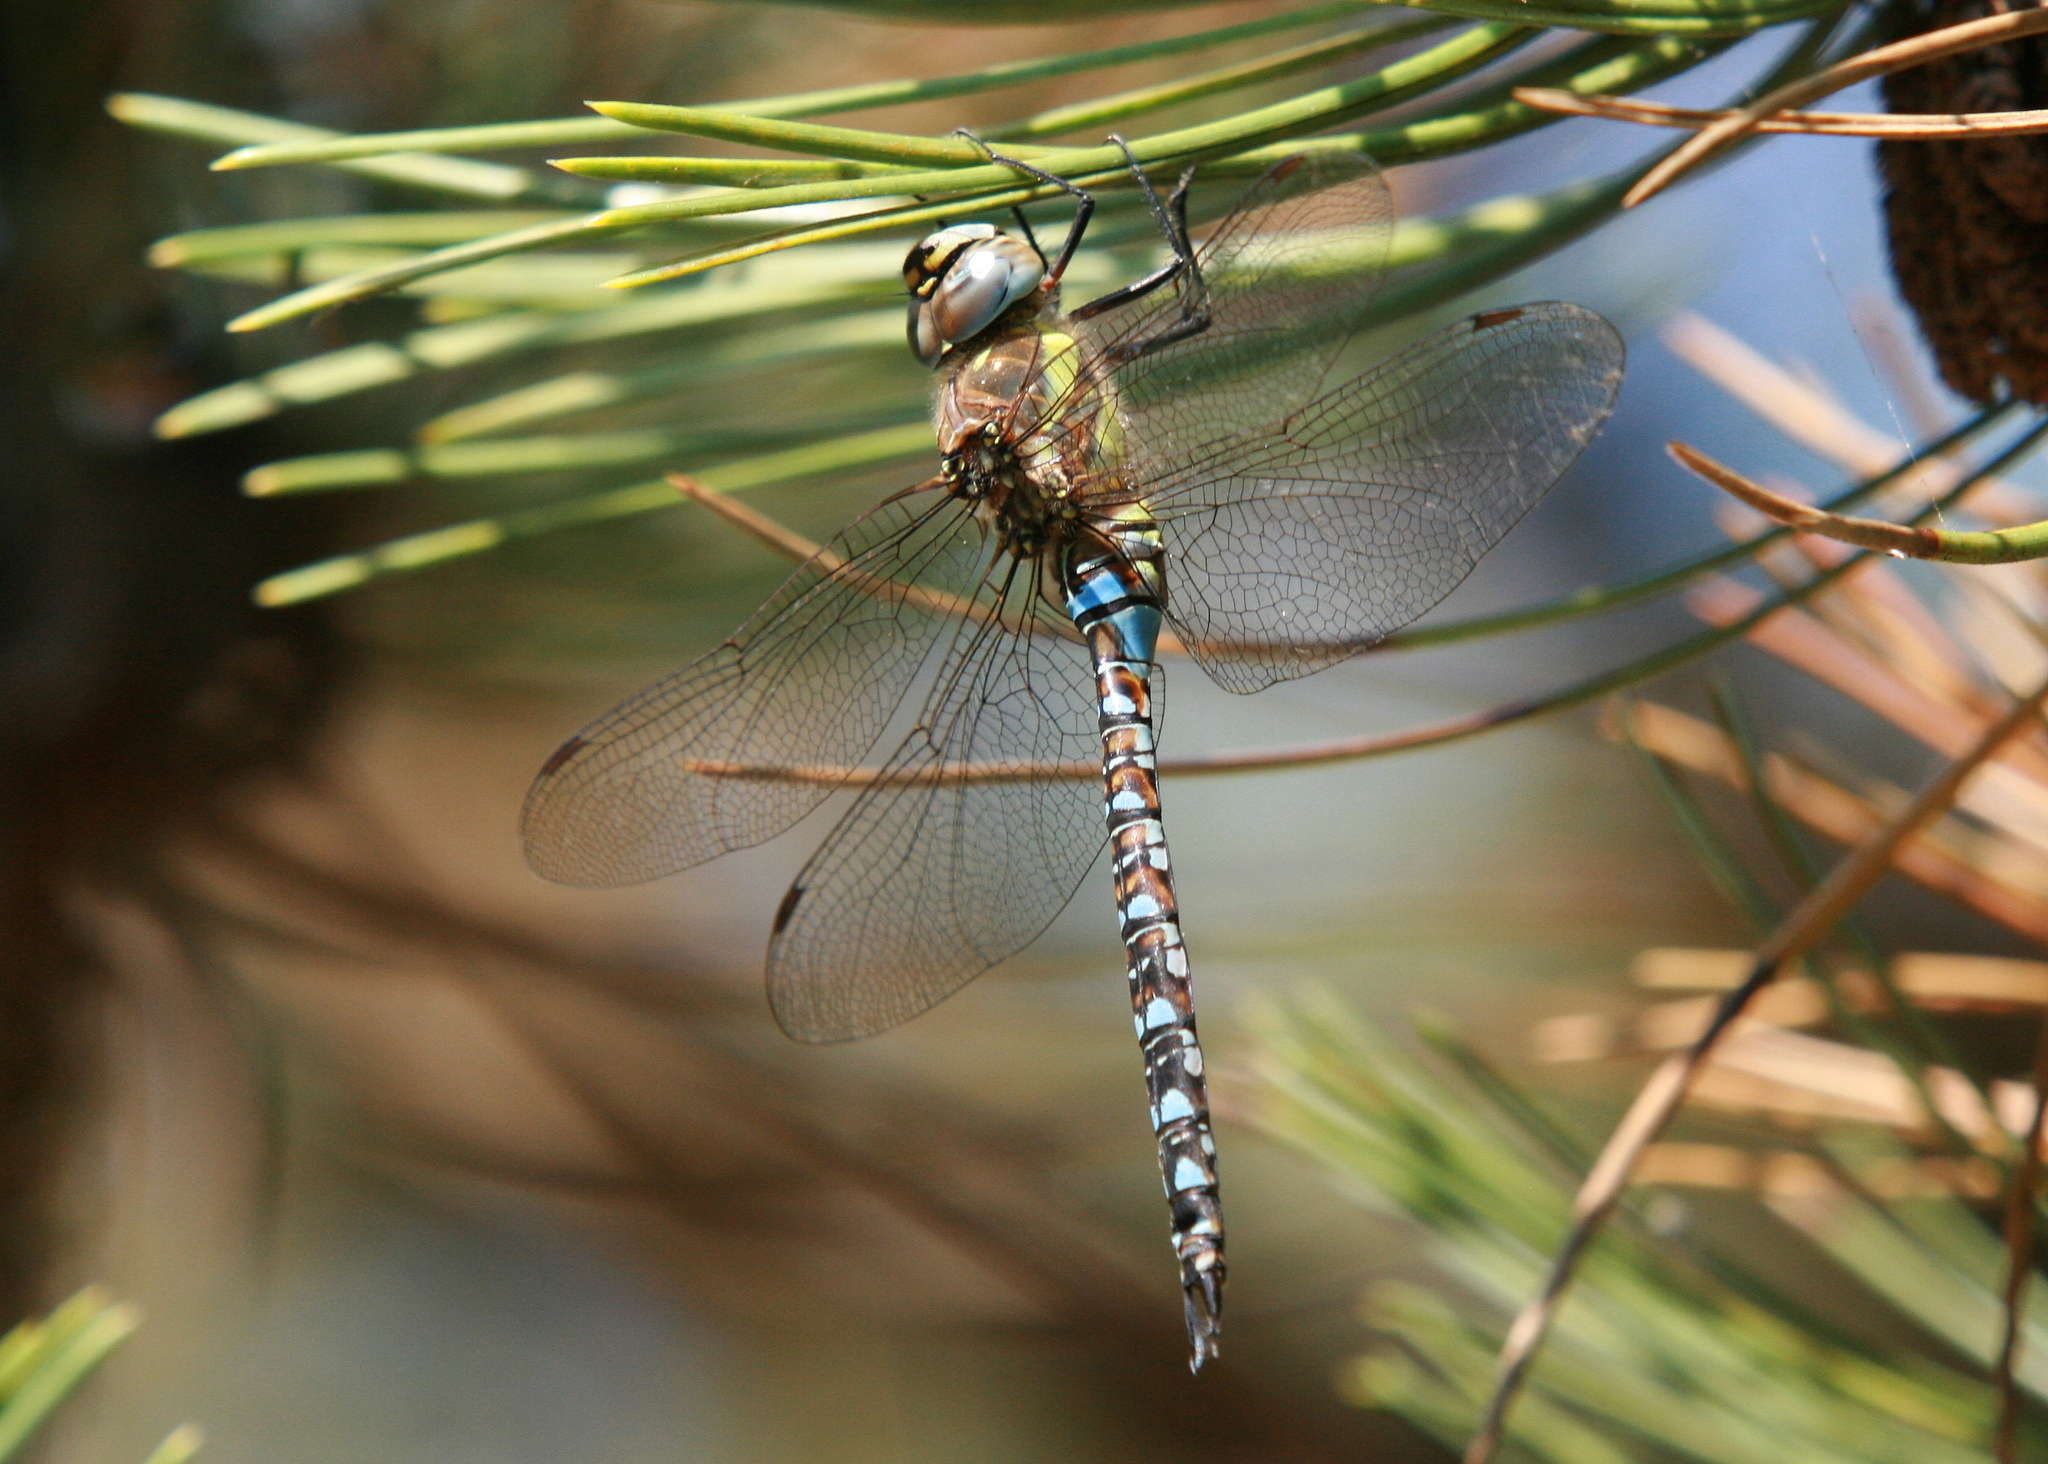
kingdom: Animalia
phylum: Arthropoda
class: Insecta
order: Odonata
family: Aeshnidae
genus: Aeshna
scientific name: Aeshna mixta
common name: Migrant hawker
